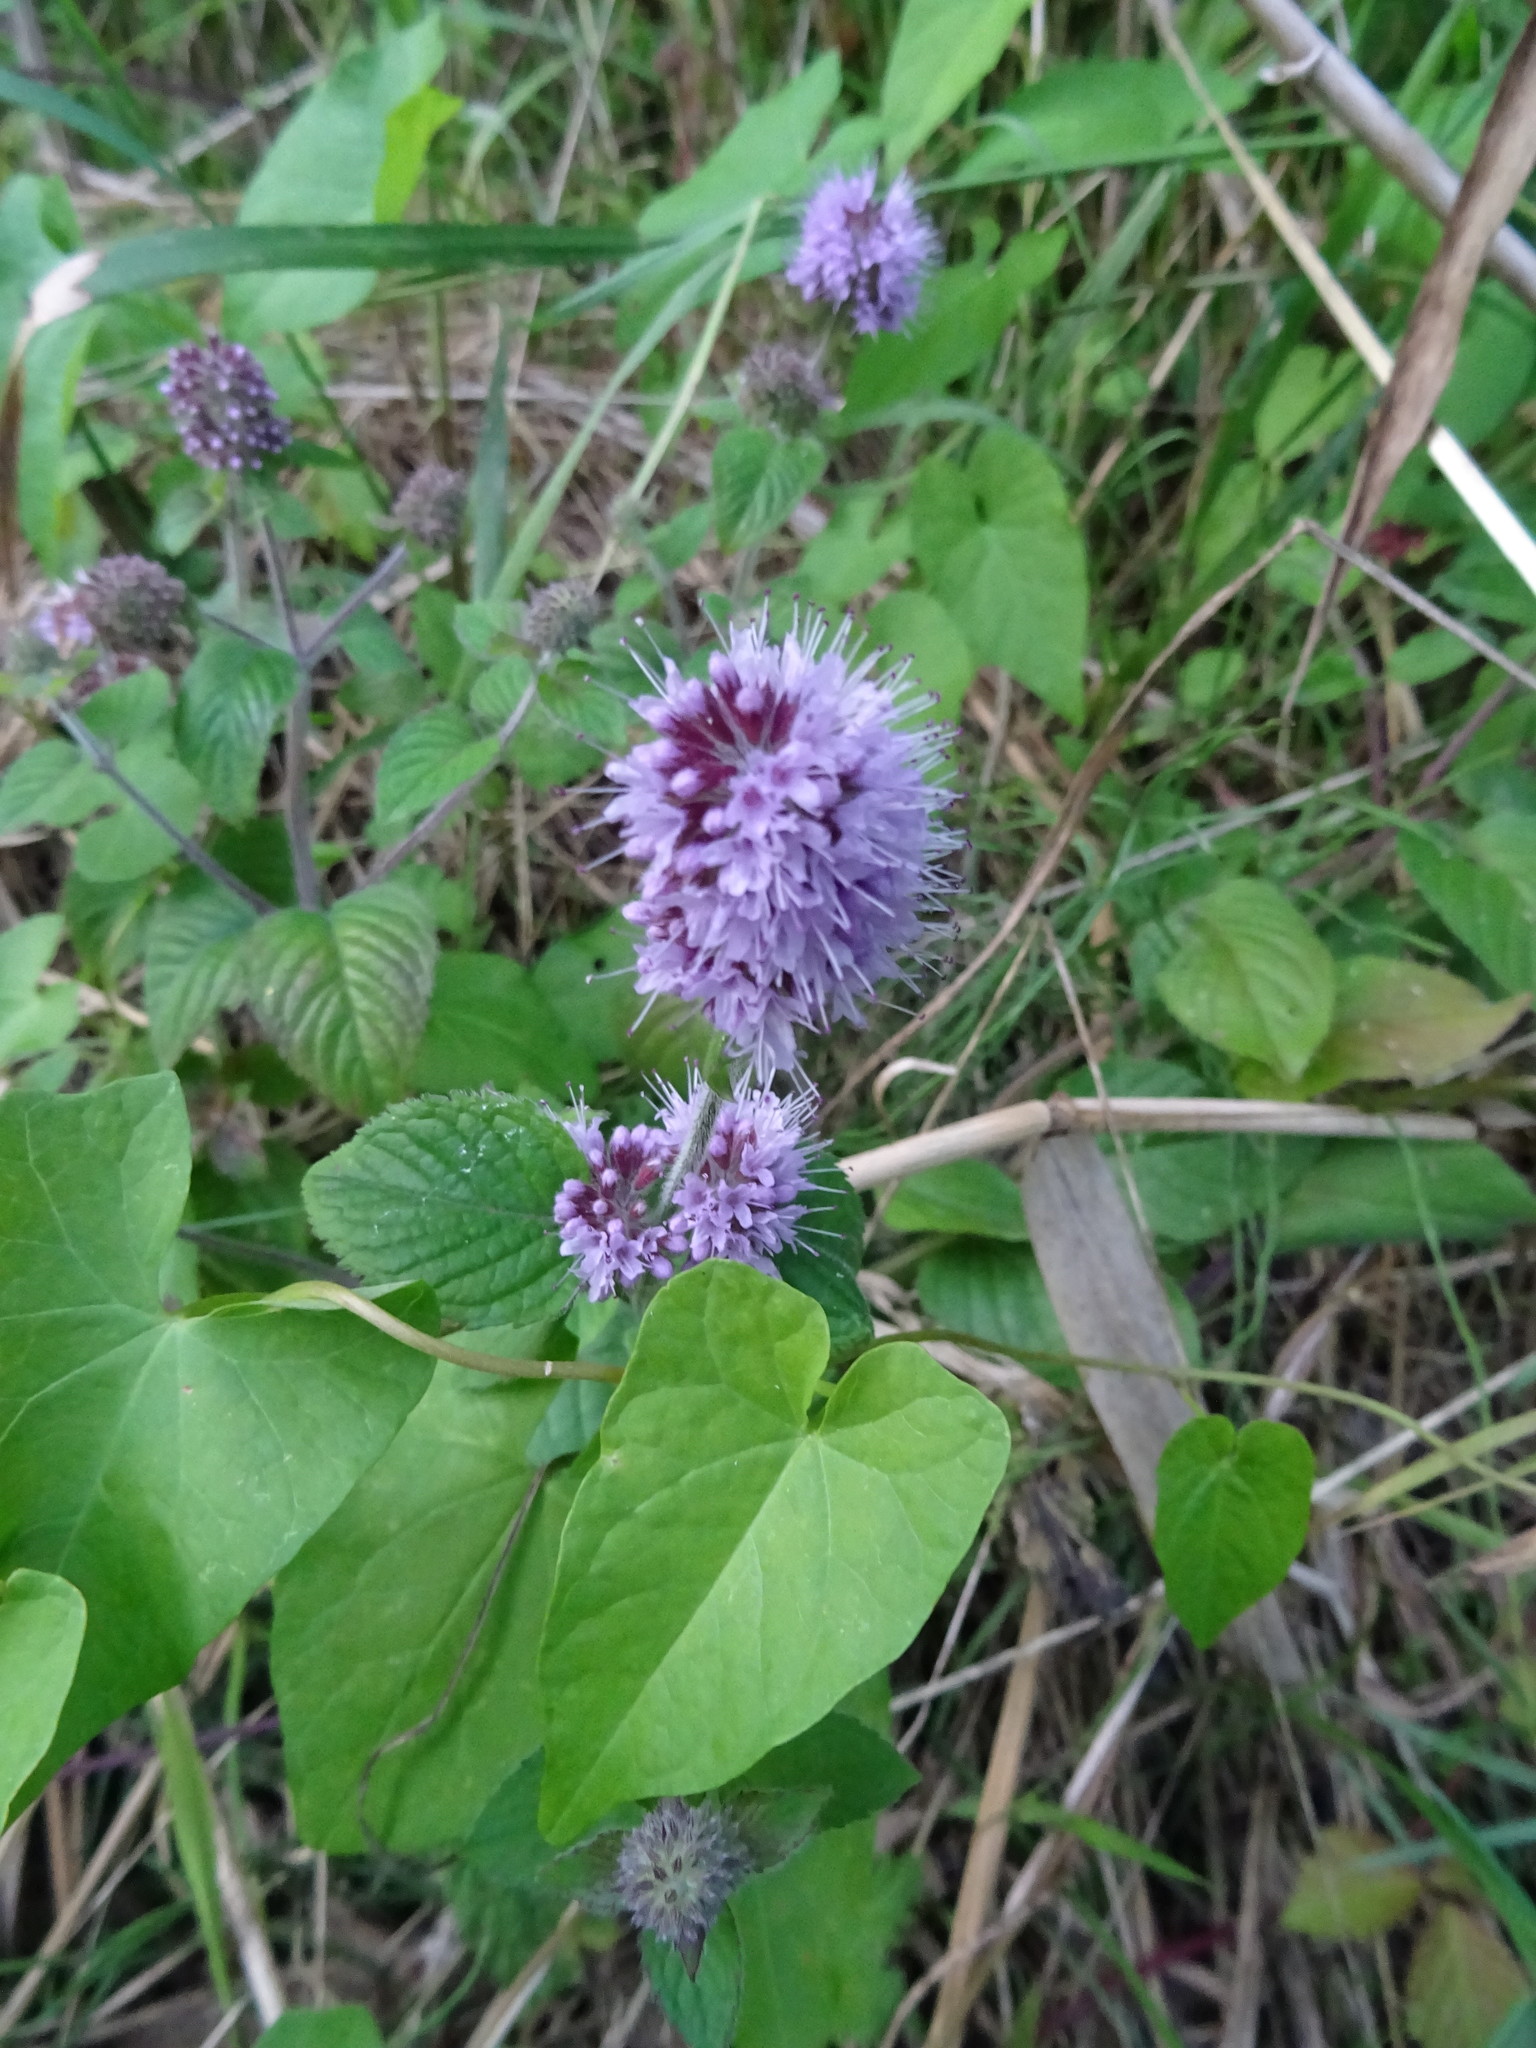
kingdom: Plantae
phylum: Tracheophyta
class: Magnoliopsida
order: Lamiales
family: Lamiaceae
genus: Mentha
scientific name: Mentha aquatica
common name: Water mint
